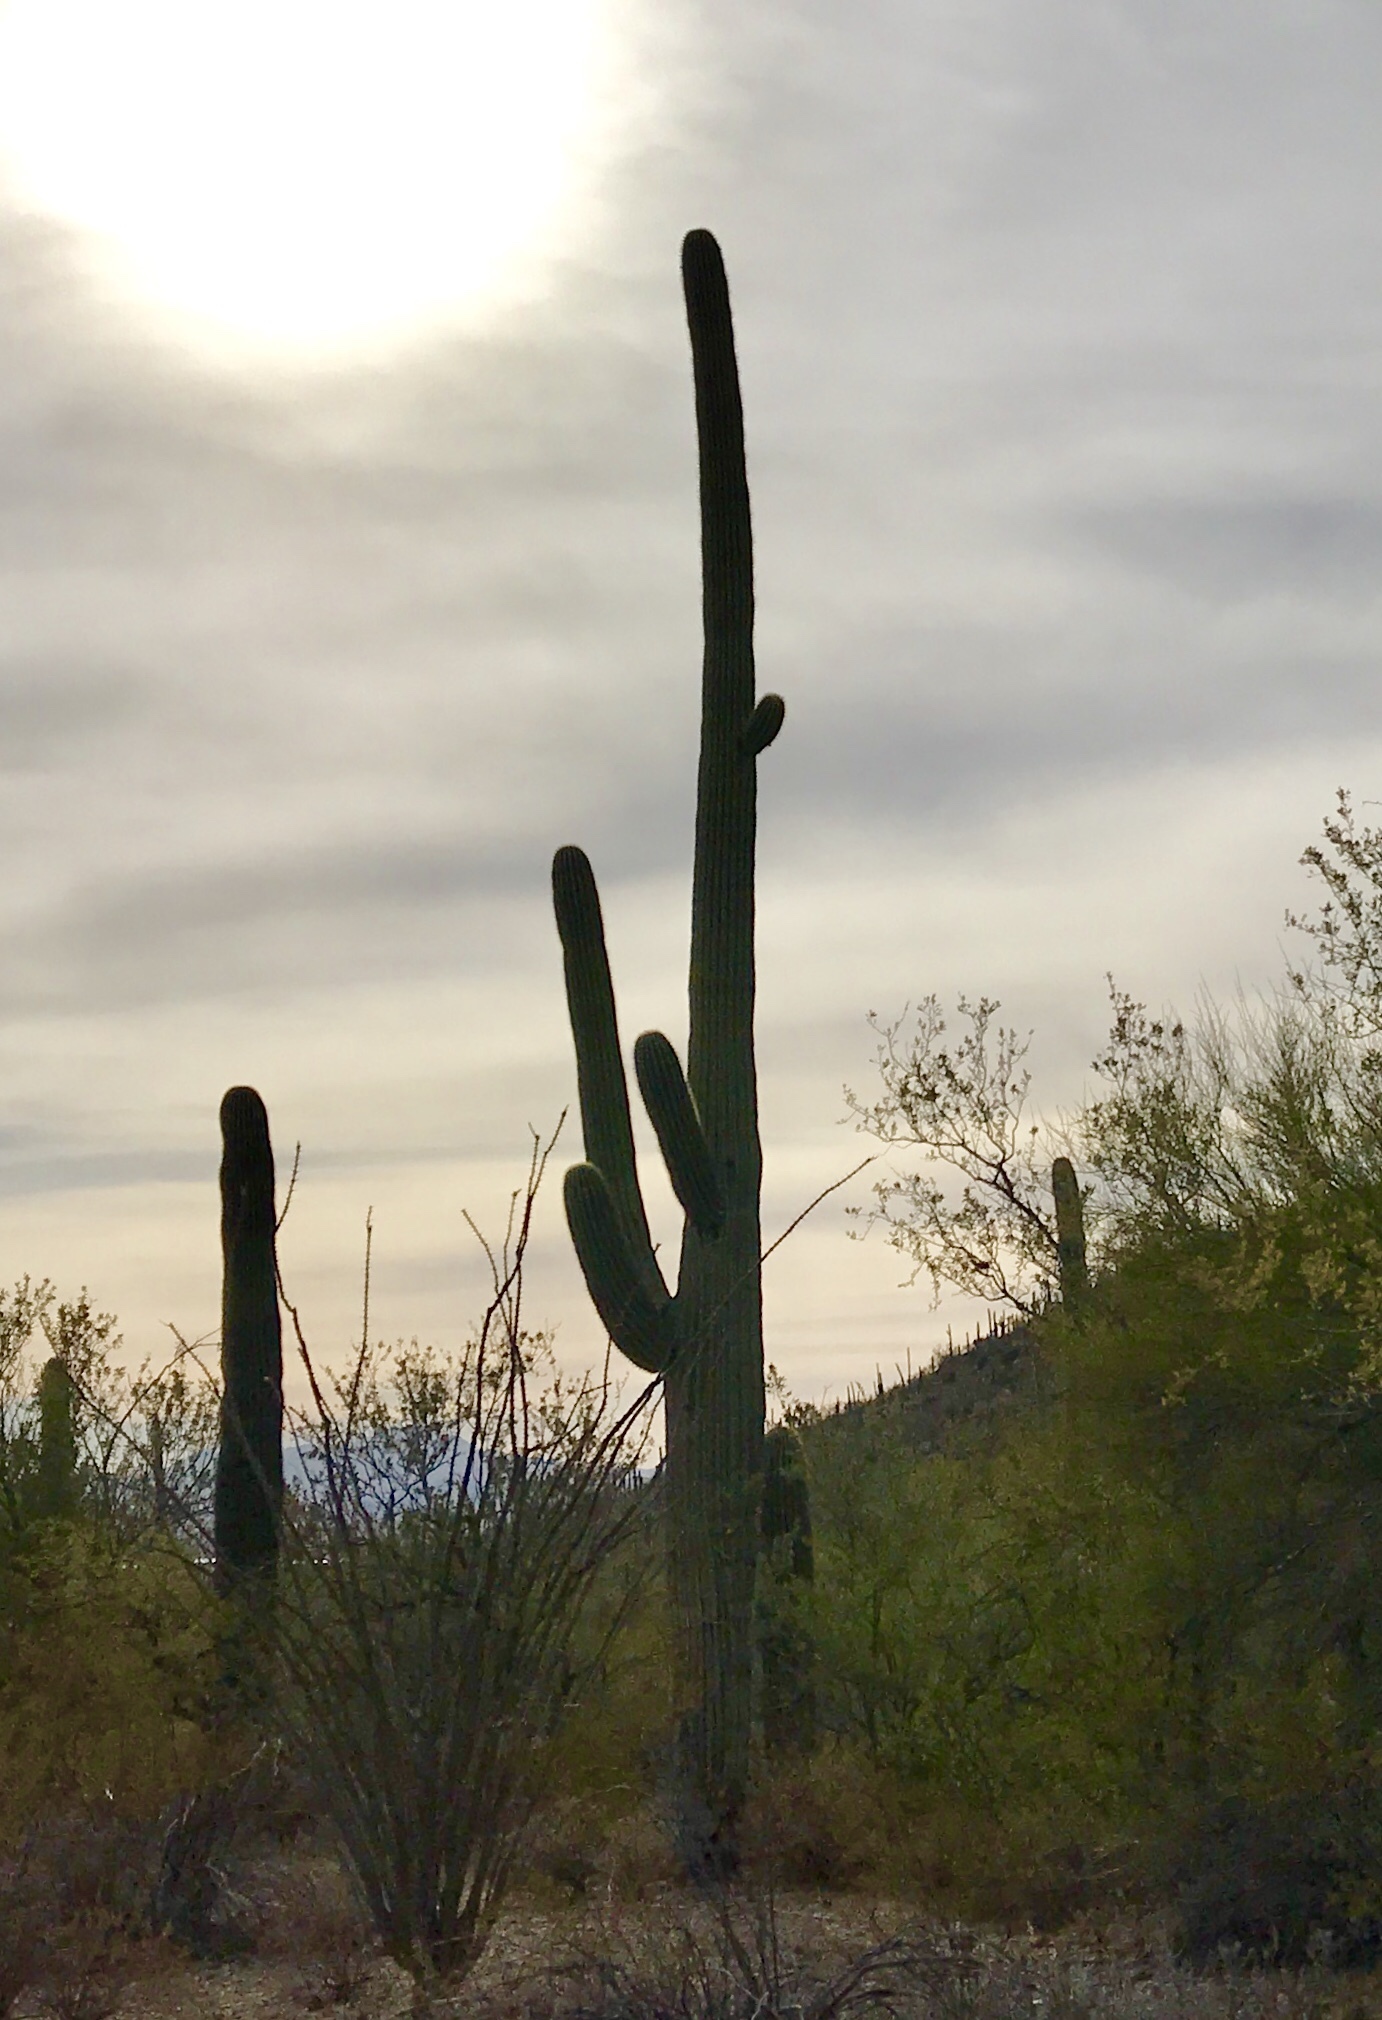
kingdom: Plantae
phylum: Tracheophyta
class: Magnoliopsida
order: Caryophyllales
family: Cactaceae
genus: Carnegiea
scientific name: Carnegiea gigantea
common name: Saguaro
